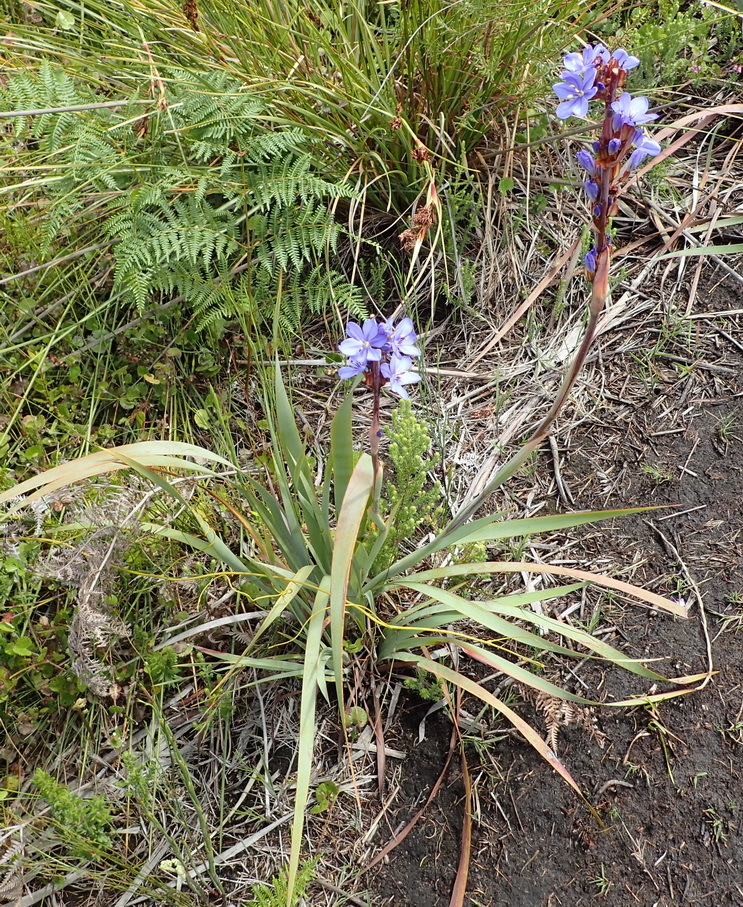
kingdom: Plantae
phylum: Tracheophyta
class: Liliopsida
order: Asparagales
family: Iridaceae
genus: Aristea
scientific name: Aristea bakeri
